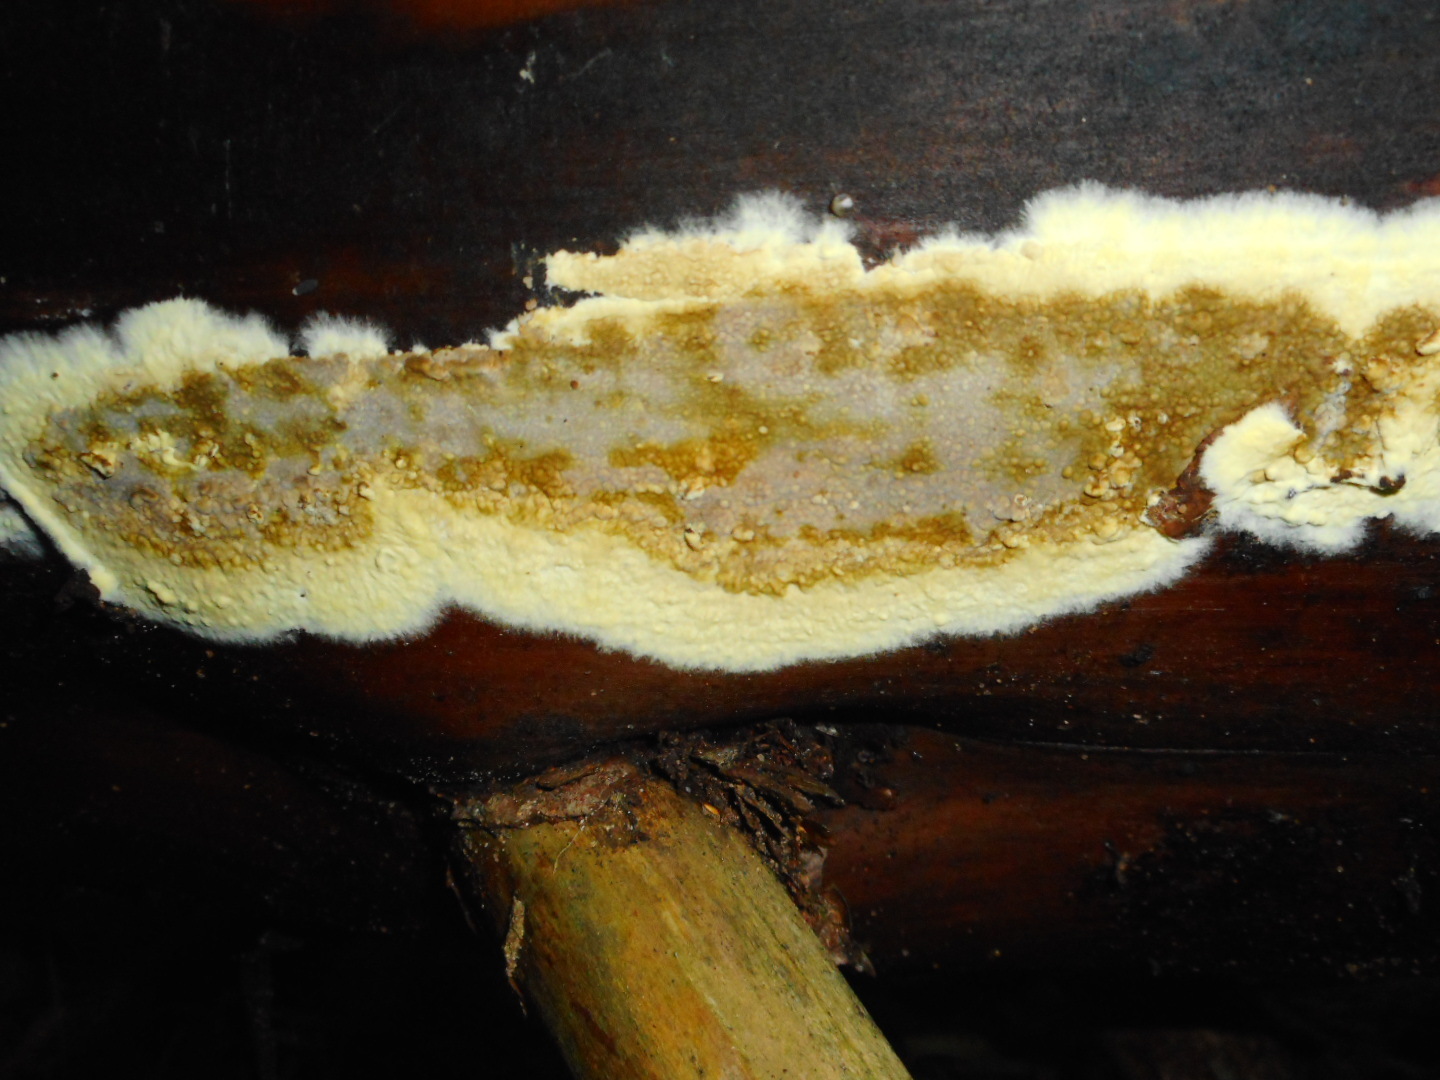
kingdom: Fungi
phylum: Basidiomycota
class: Agaricomycetes
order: Boletales
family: Coniophoraceae
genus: Coniophora
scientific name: Coniophora puteana
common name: Cellar fungus
